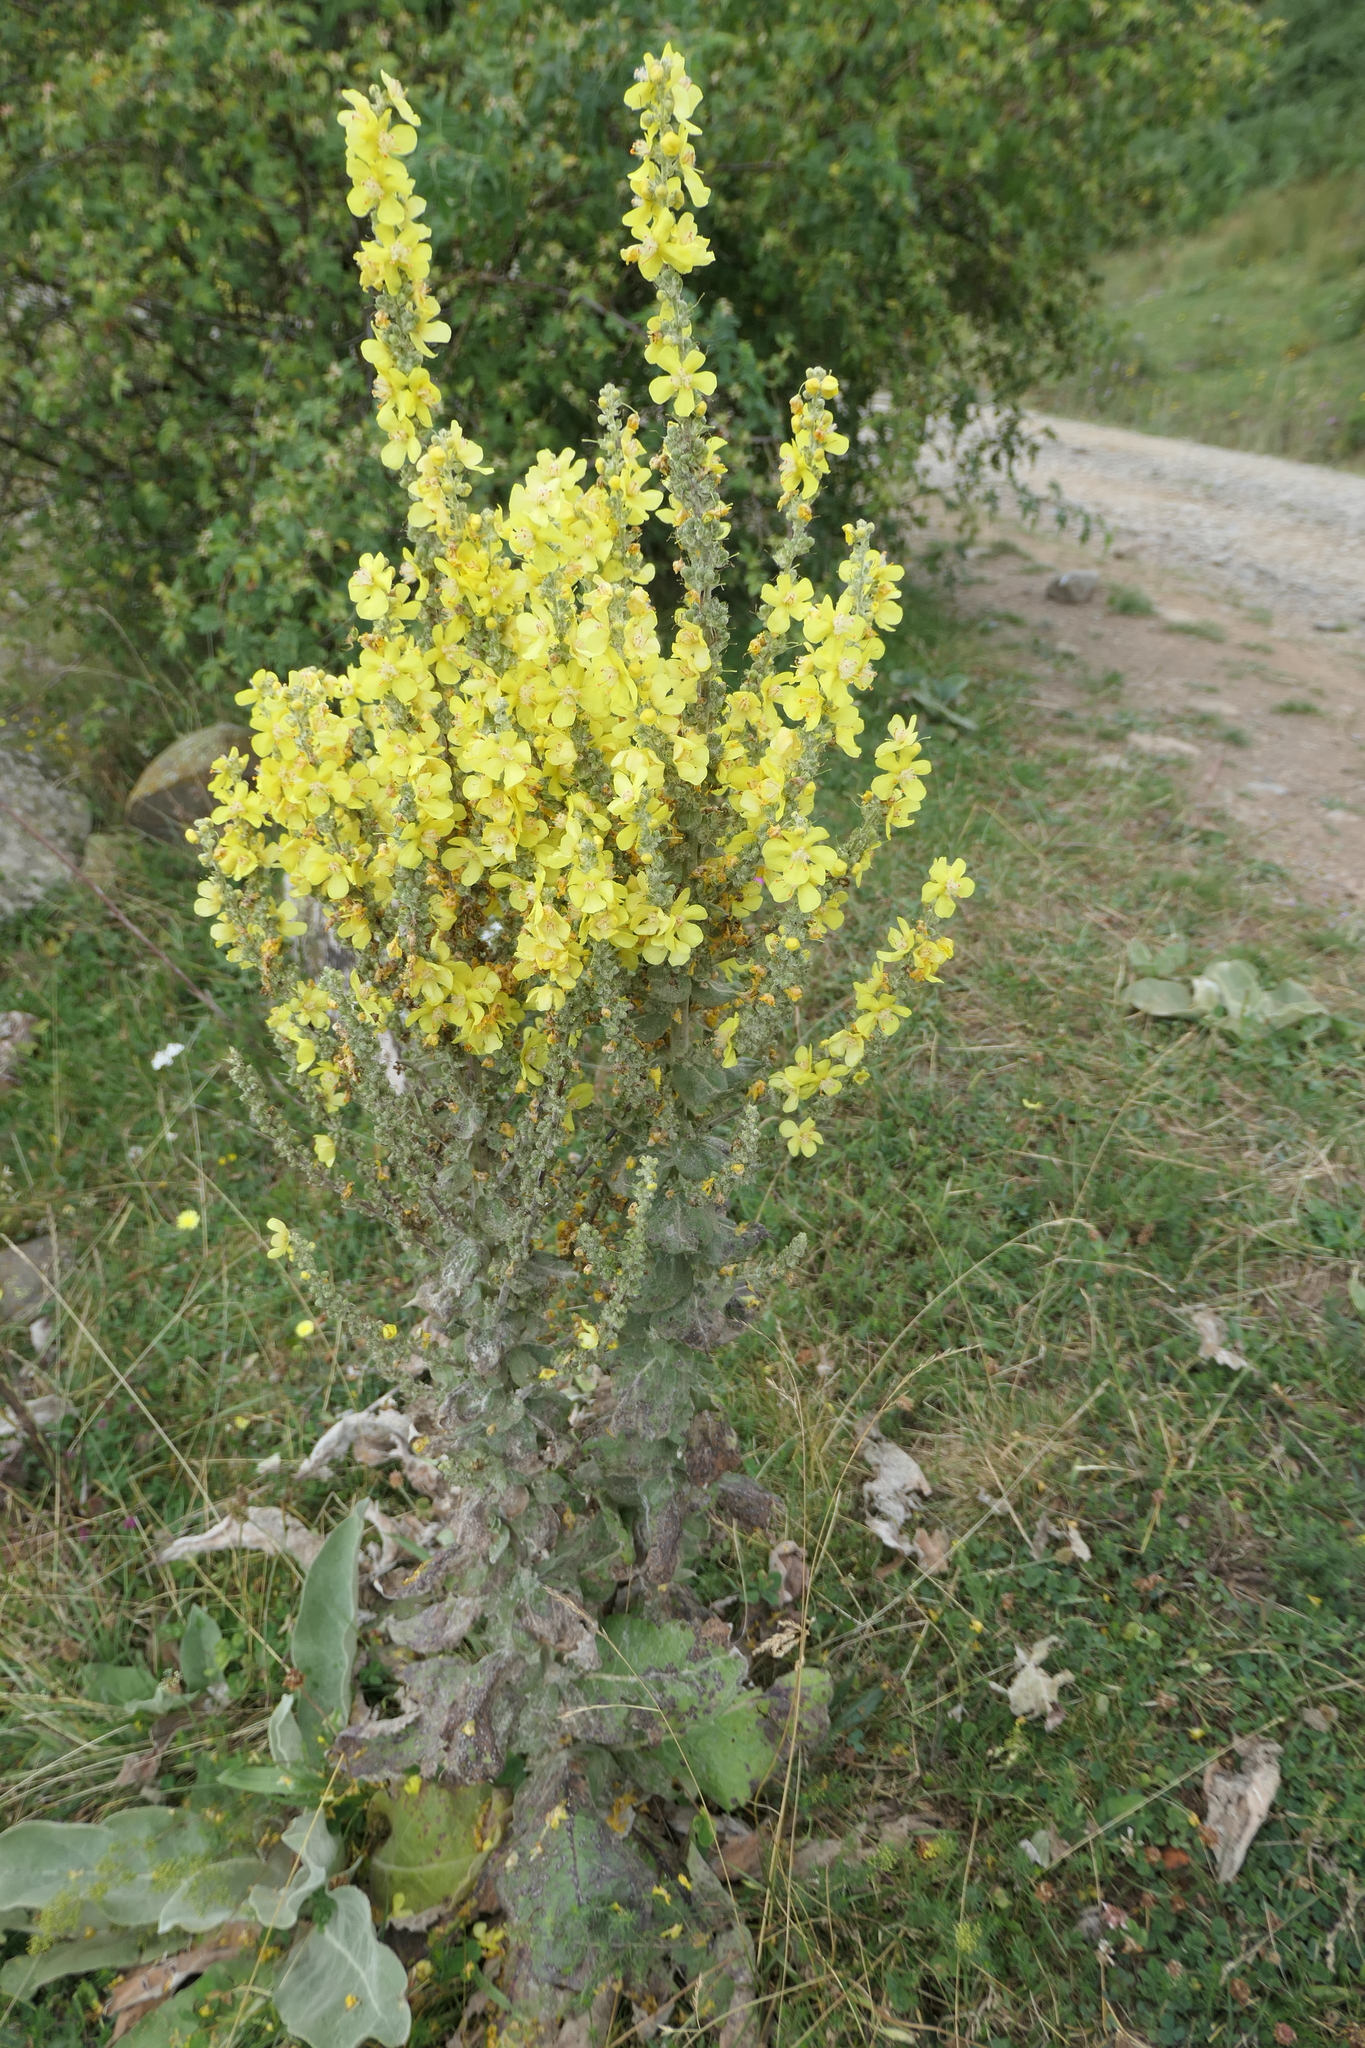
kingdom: Plantae
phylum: Tracheophyta
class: Magnoliopsida
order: Lamiales
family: Scrophulariaceae
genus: Verbascum
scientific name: Verbascum pulverulentum
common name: Broad-leaf mullein
